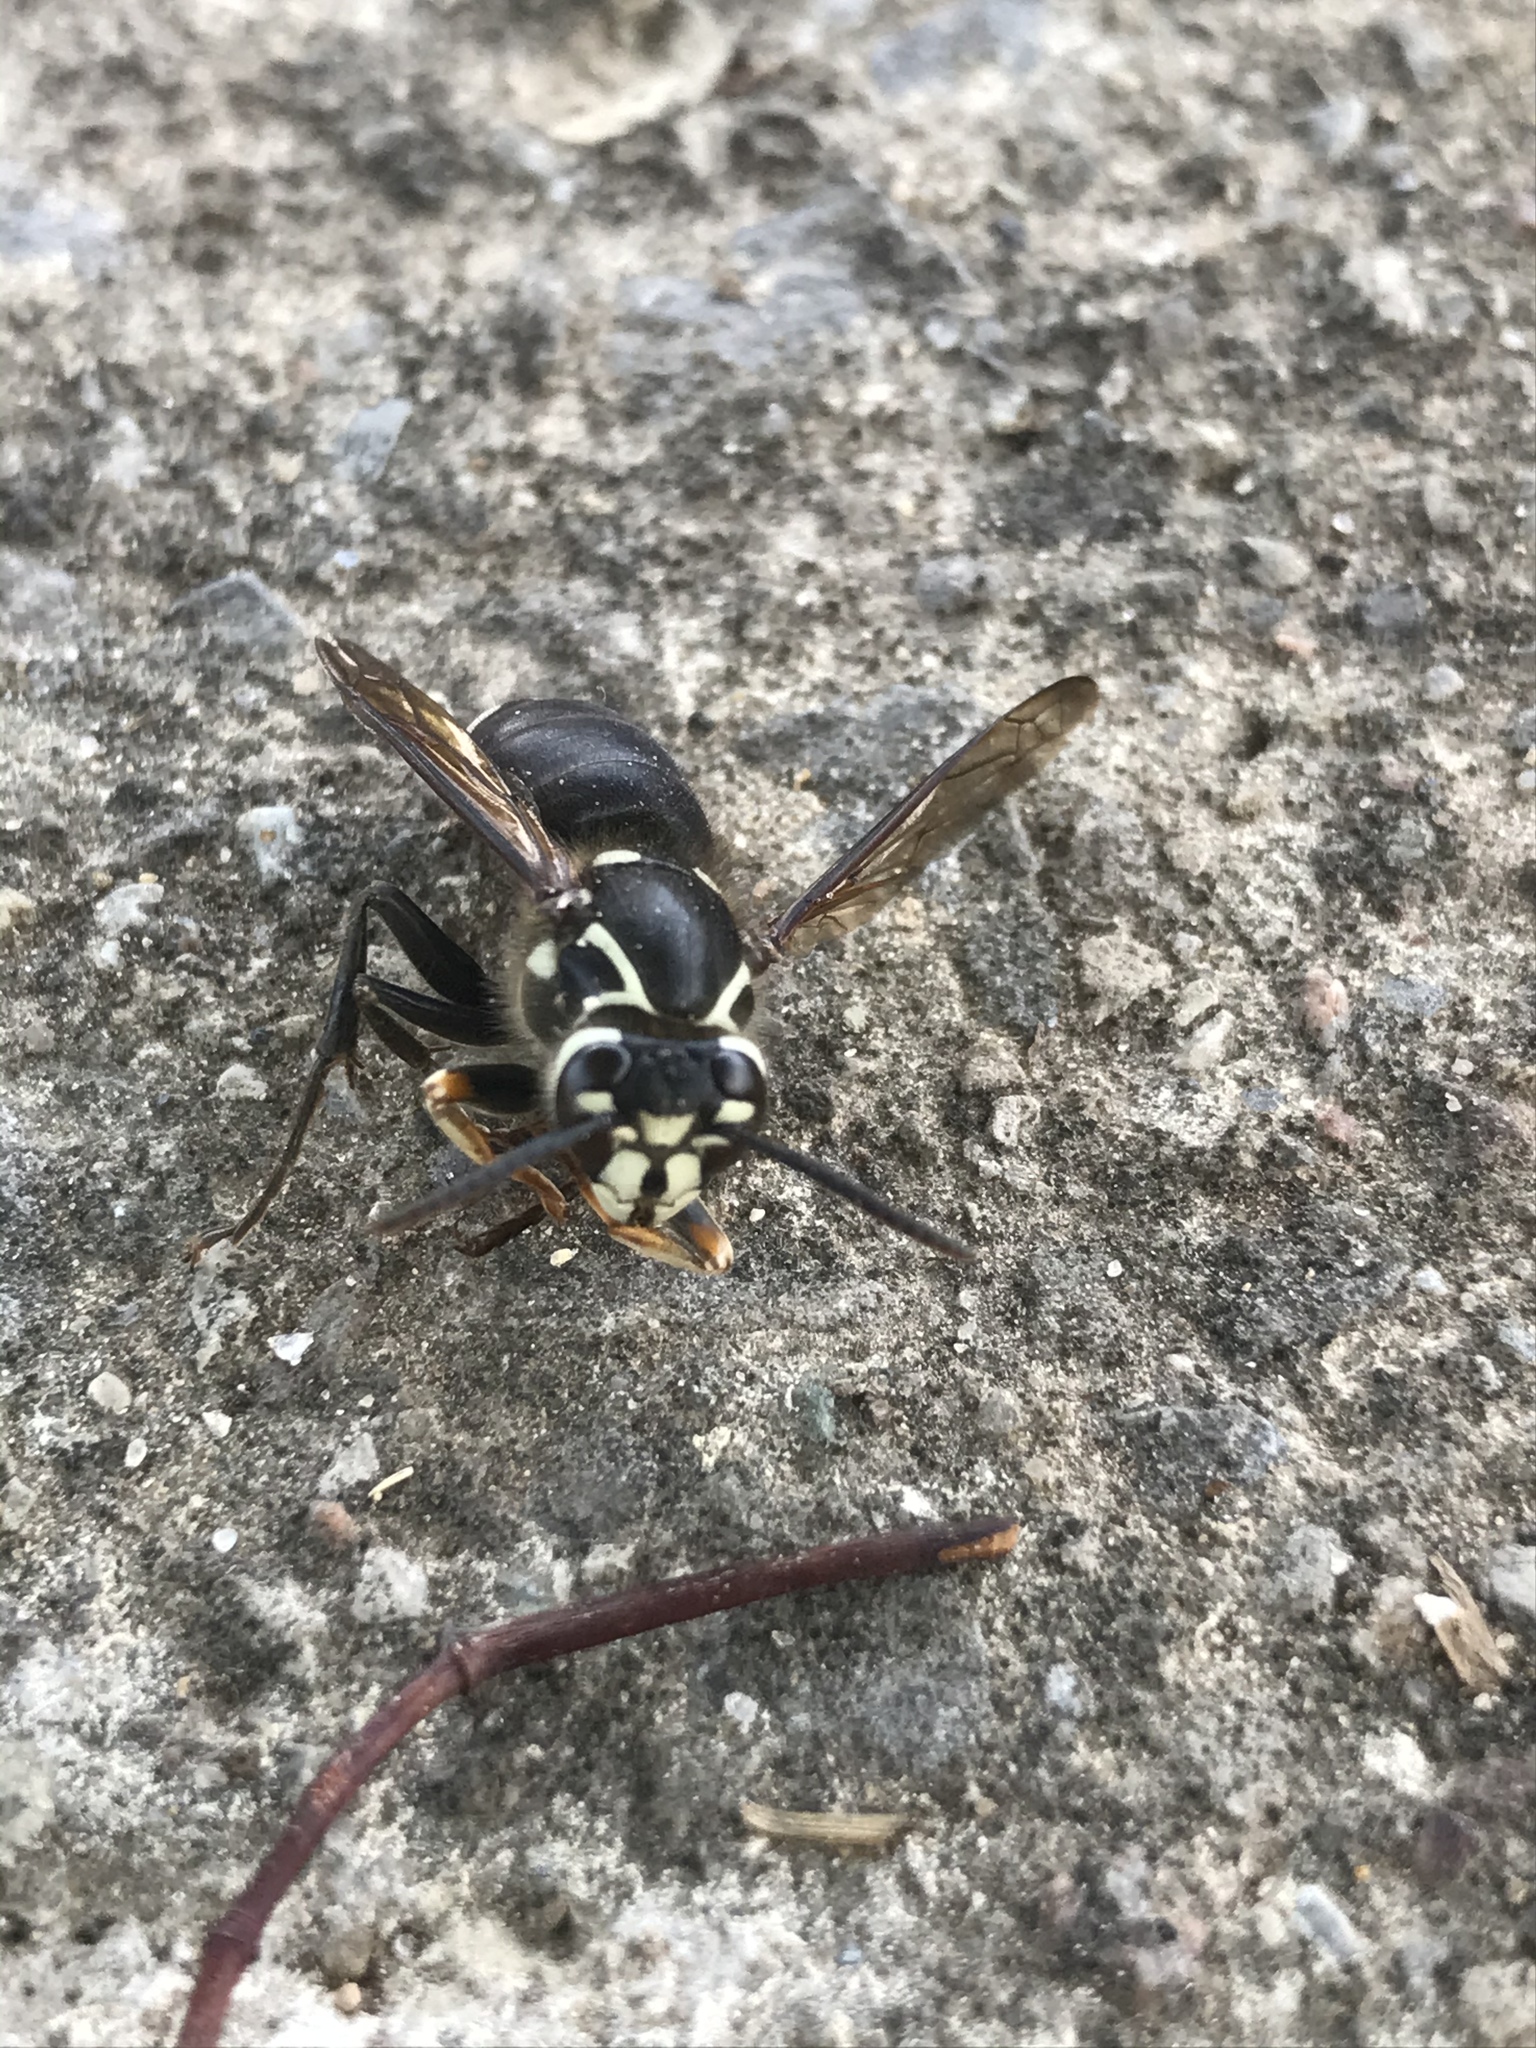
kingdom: Animalia
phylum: Arthropoda
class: Insecta
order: Hymenoptera
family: Vespidae
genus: Dolichovespula
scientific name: Dolichovespula maculata
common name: Bald-faced hornet
